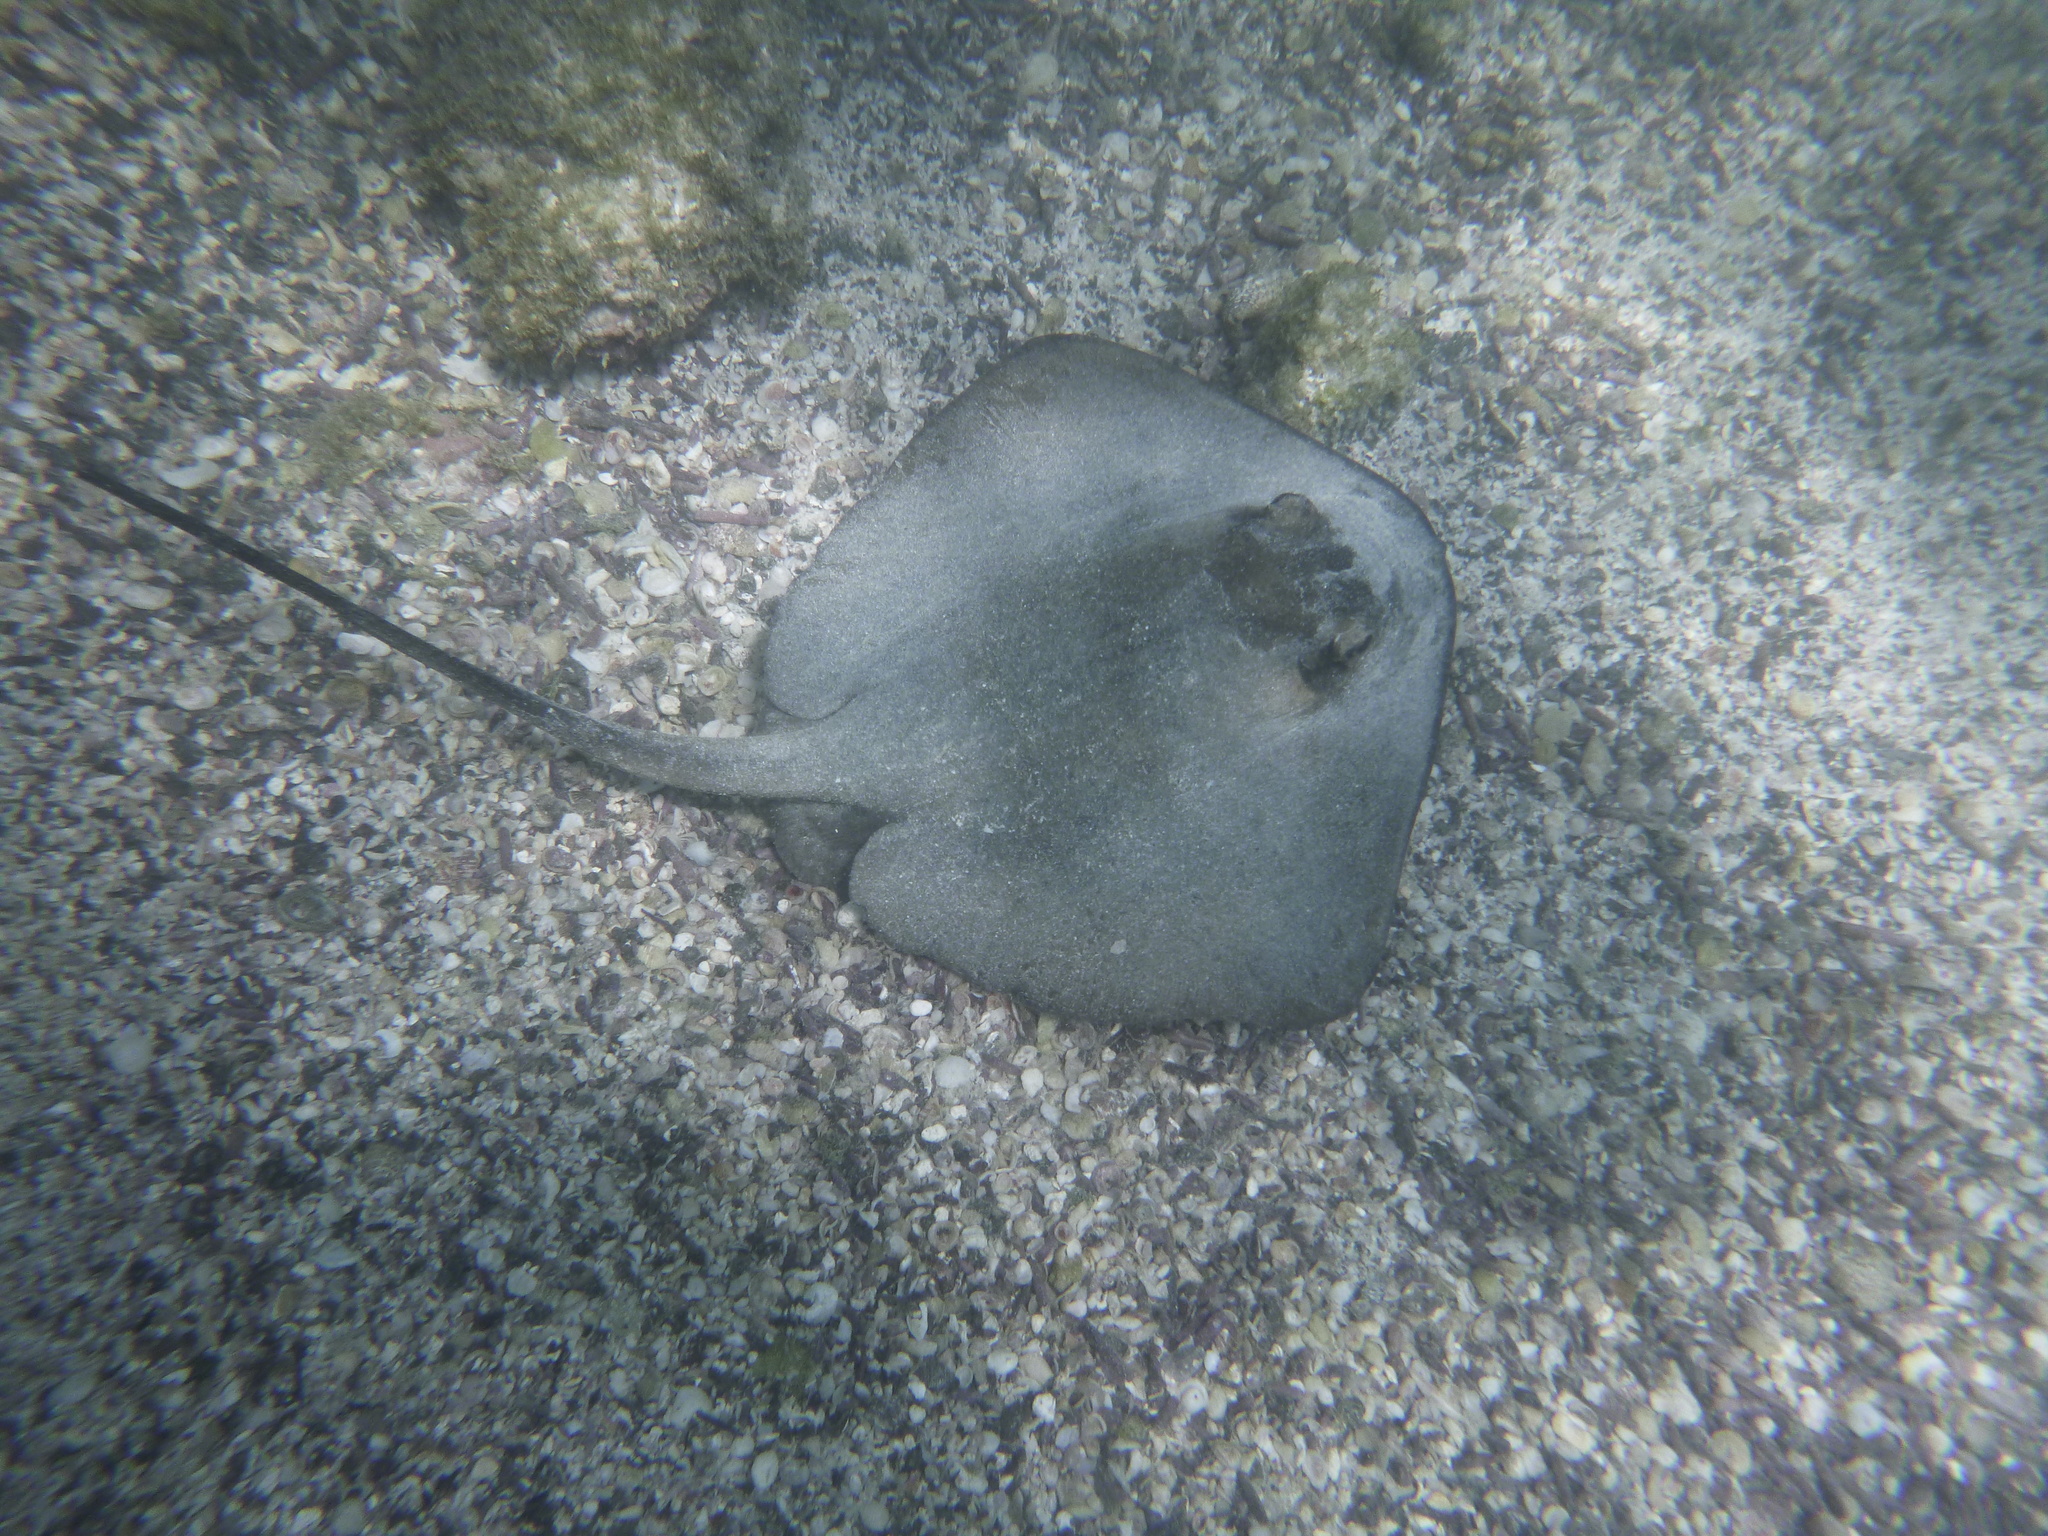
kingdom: Animalia
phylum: Chordata
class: Elasmobranchii
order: Myliobatiformes
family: Dasyatidae
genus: Hypanus
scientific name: Hypanus longus
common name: Longtail stingray
